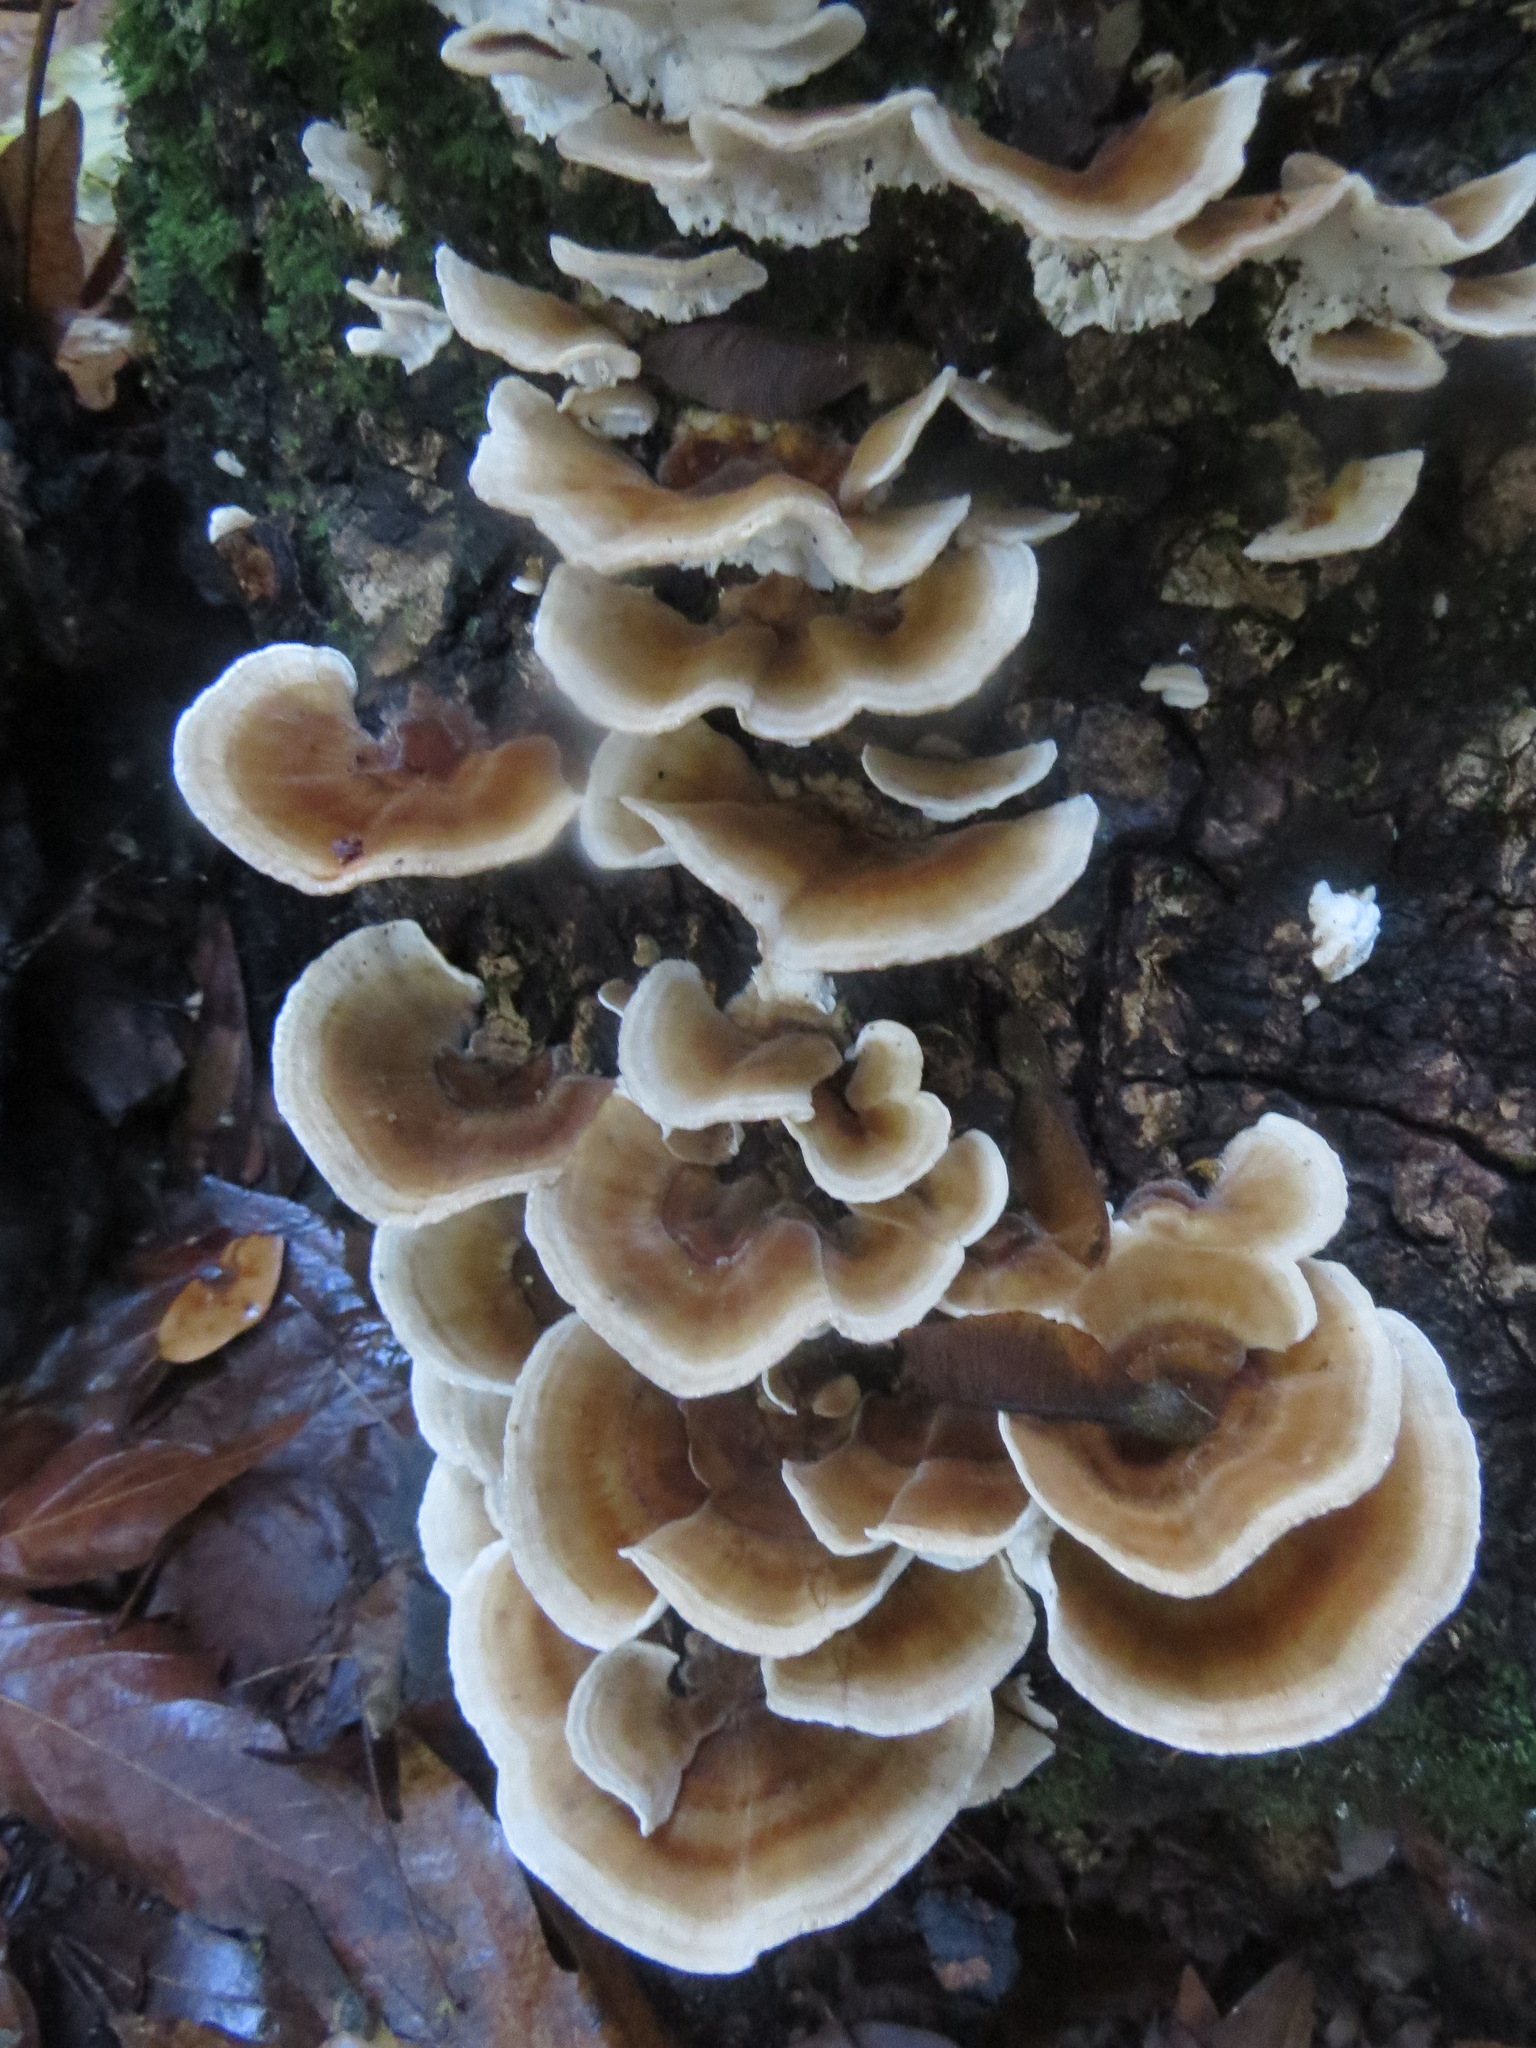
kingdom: Fungi
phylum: Basidiomycota
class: Agaricomycetes
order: Polyporales
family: Polyporaceae
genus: Trametes
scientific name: Trametes versicolor
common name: Turkeytail
